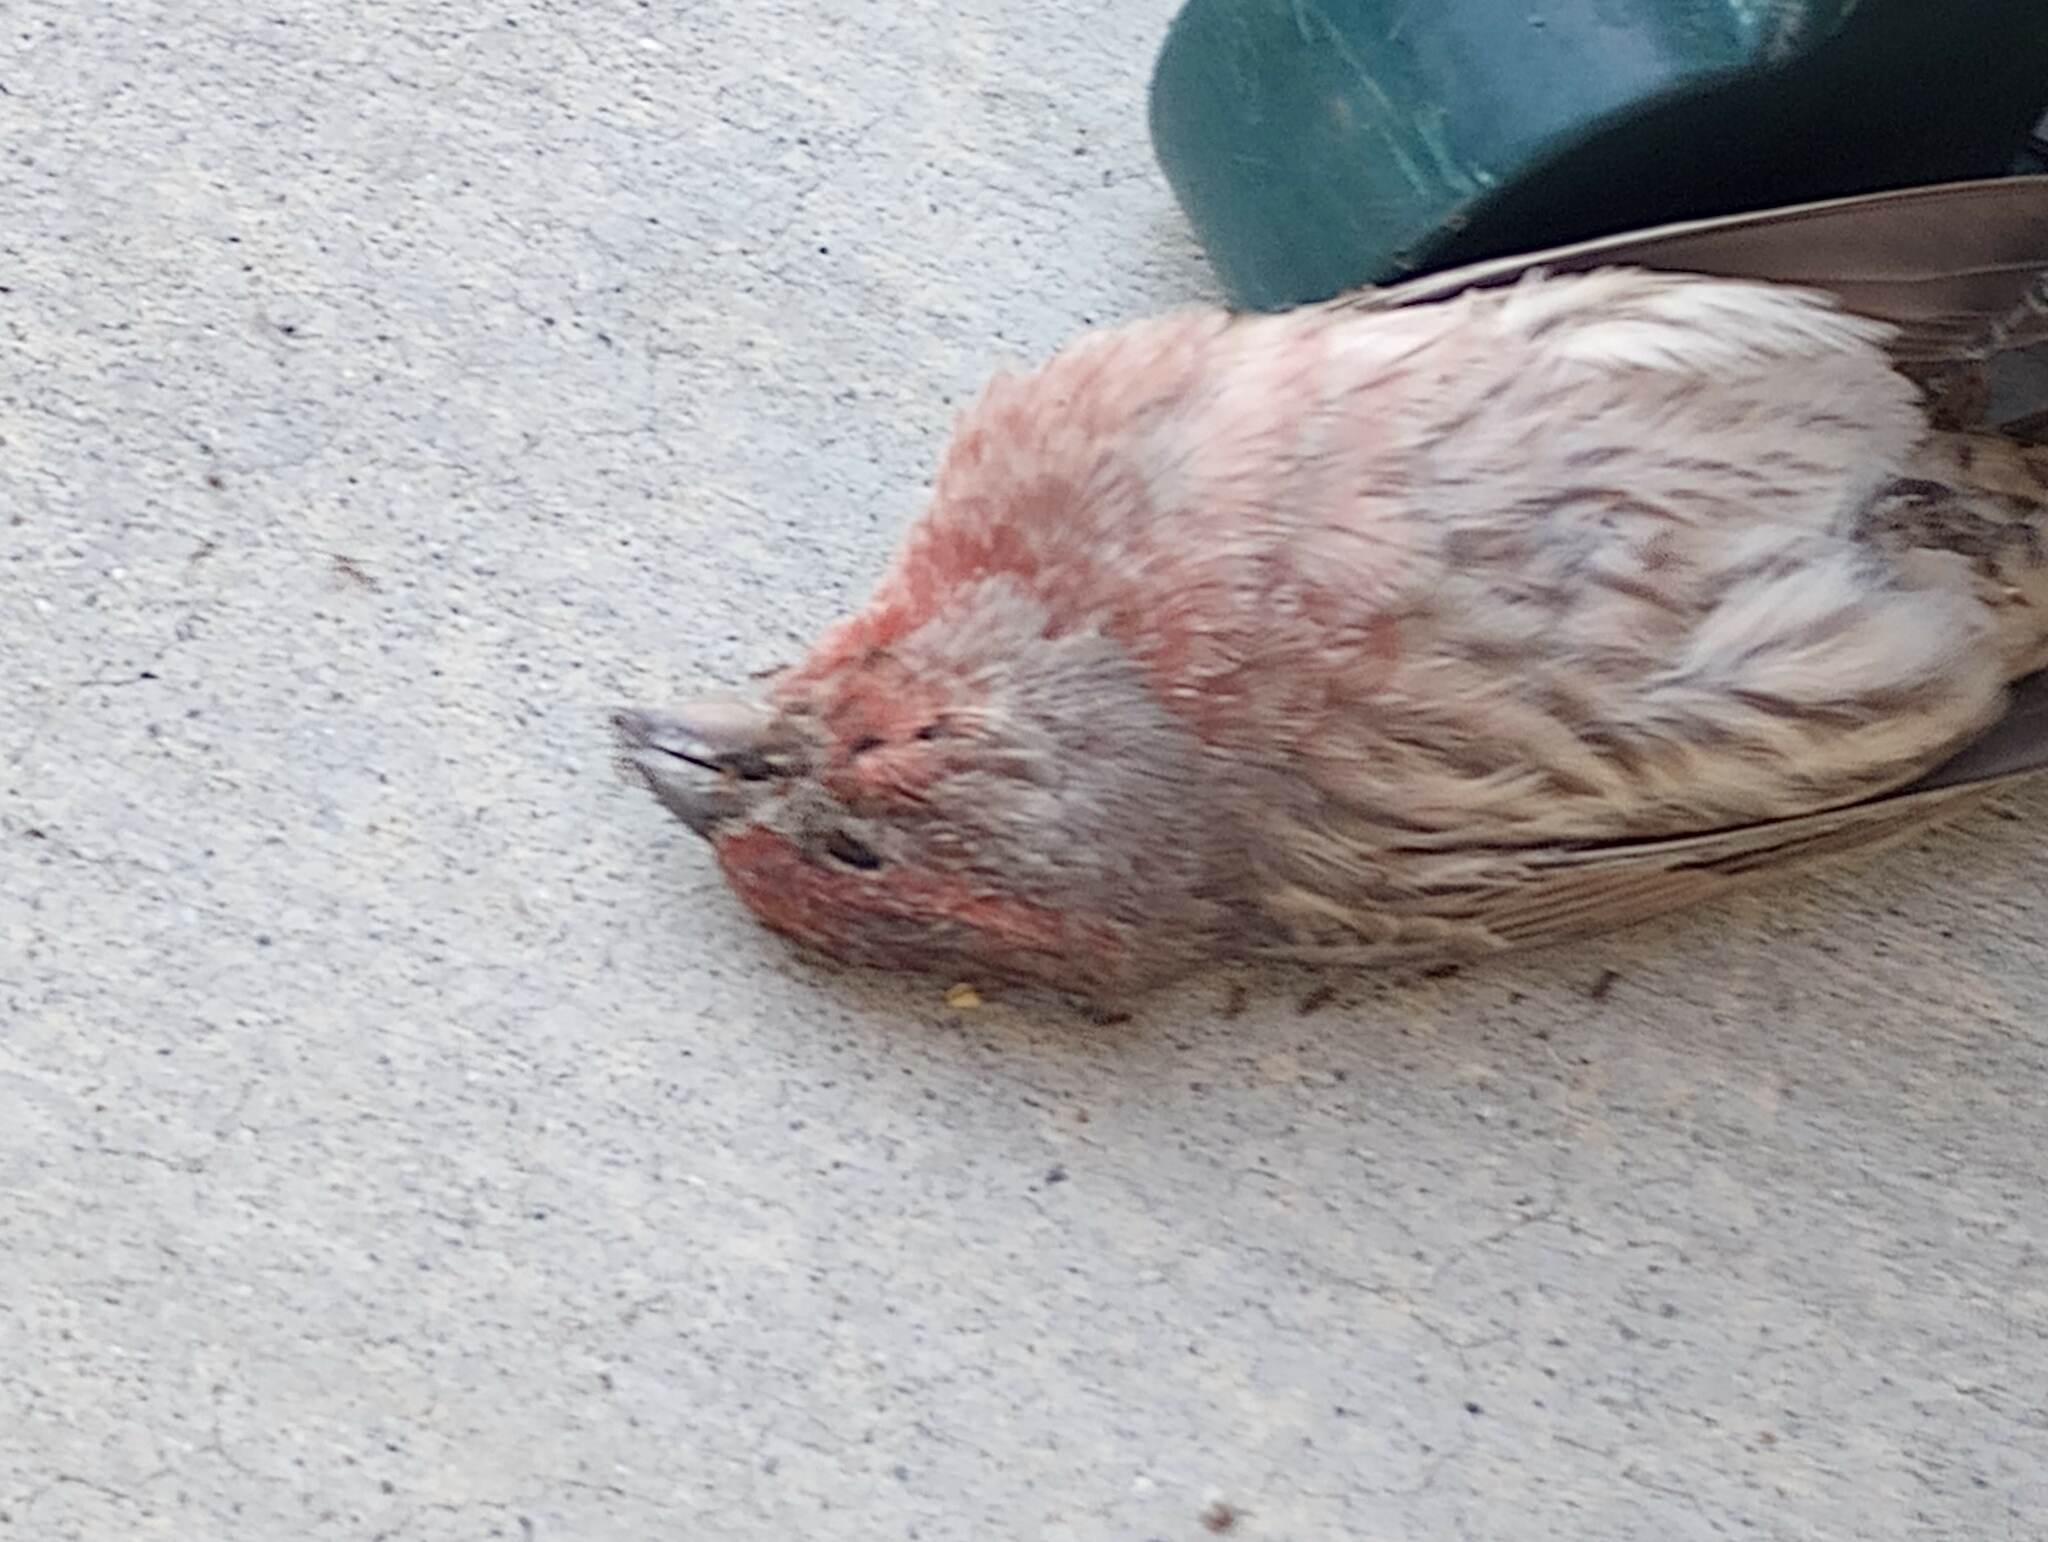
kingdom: Animalia
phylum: Chordata
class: Aves
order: Passeriformes
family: Fringillidae
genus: Haemorhous
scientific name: Haemorhous mexicanus
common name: House finch
